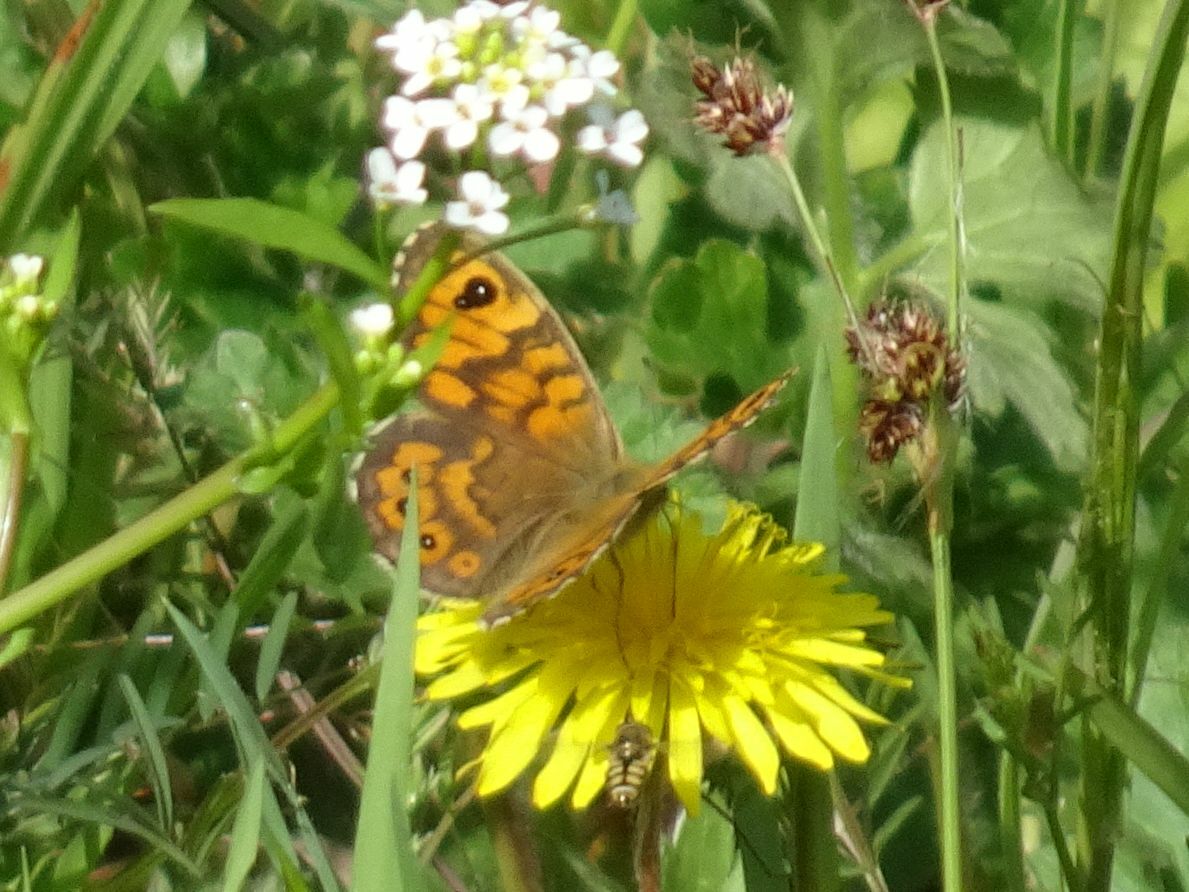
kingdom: Animalia
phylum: Arthropoda
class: Insecta
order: Lepidoptera
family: Nymphalidae
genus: Pararge
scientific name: Pararge Lasiommata megera
